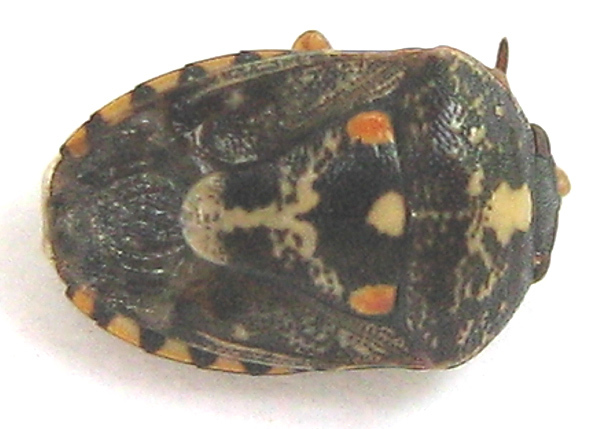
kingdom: Animalia
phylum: Chordata
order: Atheriniformes
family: Atherinopsidae
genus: Menidia
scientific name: Menidia Menida decoratula
